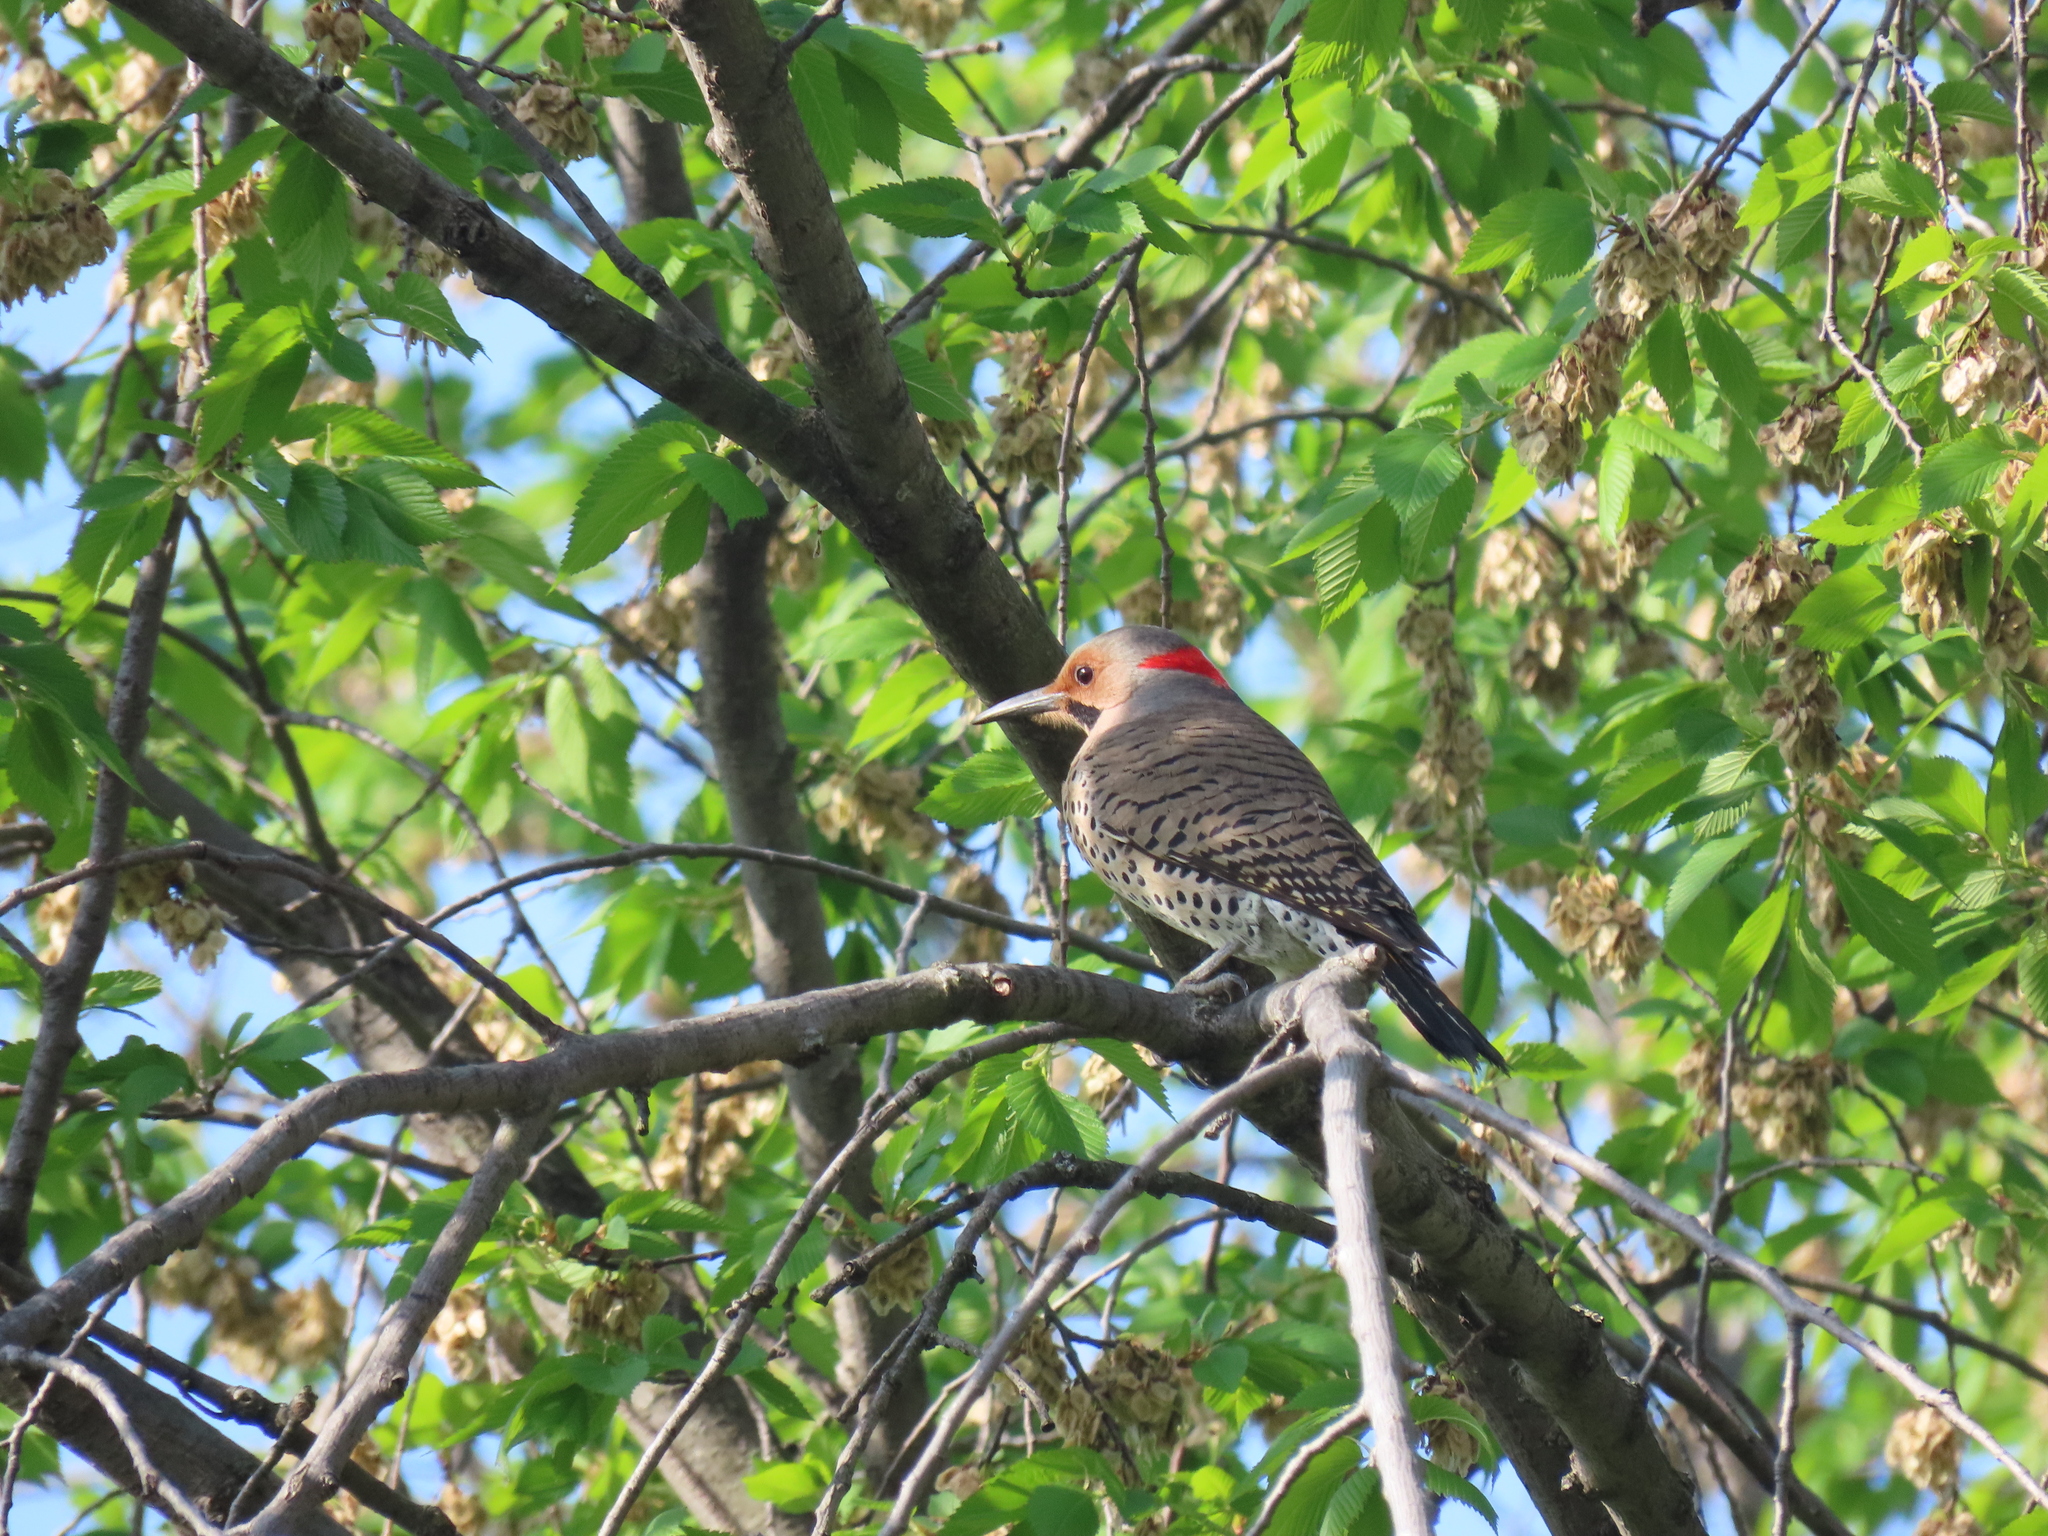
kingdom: Animalia
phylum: Chordata
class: Aves
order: Piciformes
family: Picidae
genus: Colaptes
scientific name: Colaptes auratus
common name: Northern flicker
